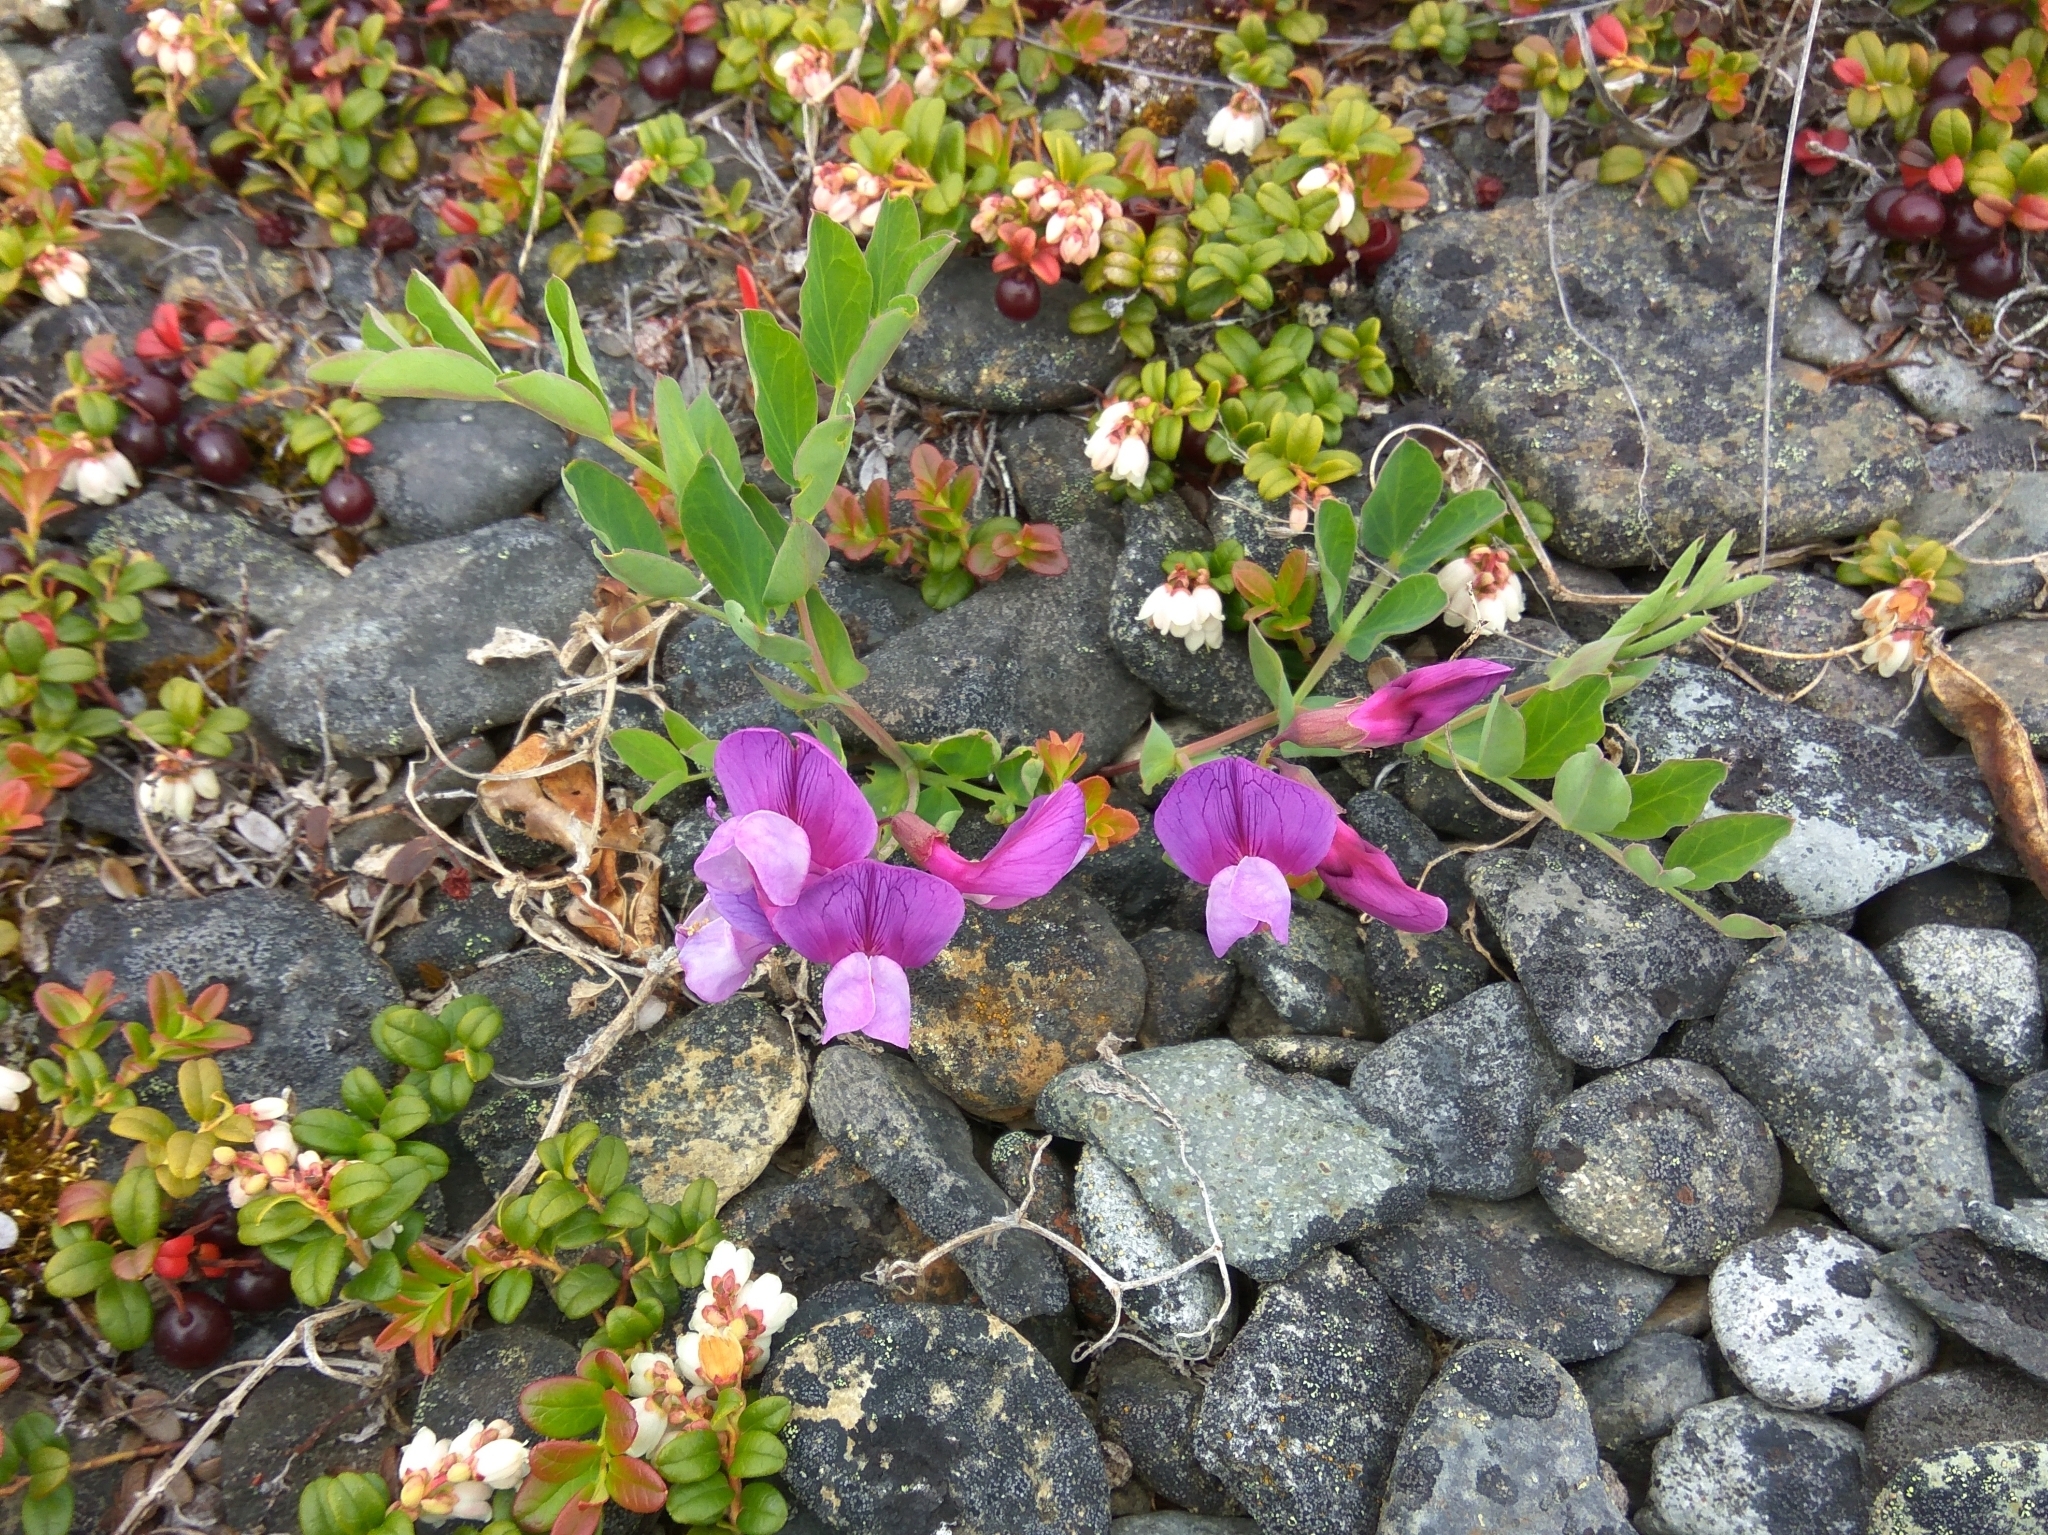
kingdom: Plantae
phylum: Tracheophyta
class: Magnoliopsida
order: Fabales
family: Fabaceae
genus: Lathyrus
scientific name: Lathyrus japonicus
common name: Sea pea
